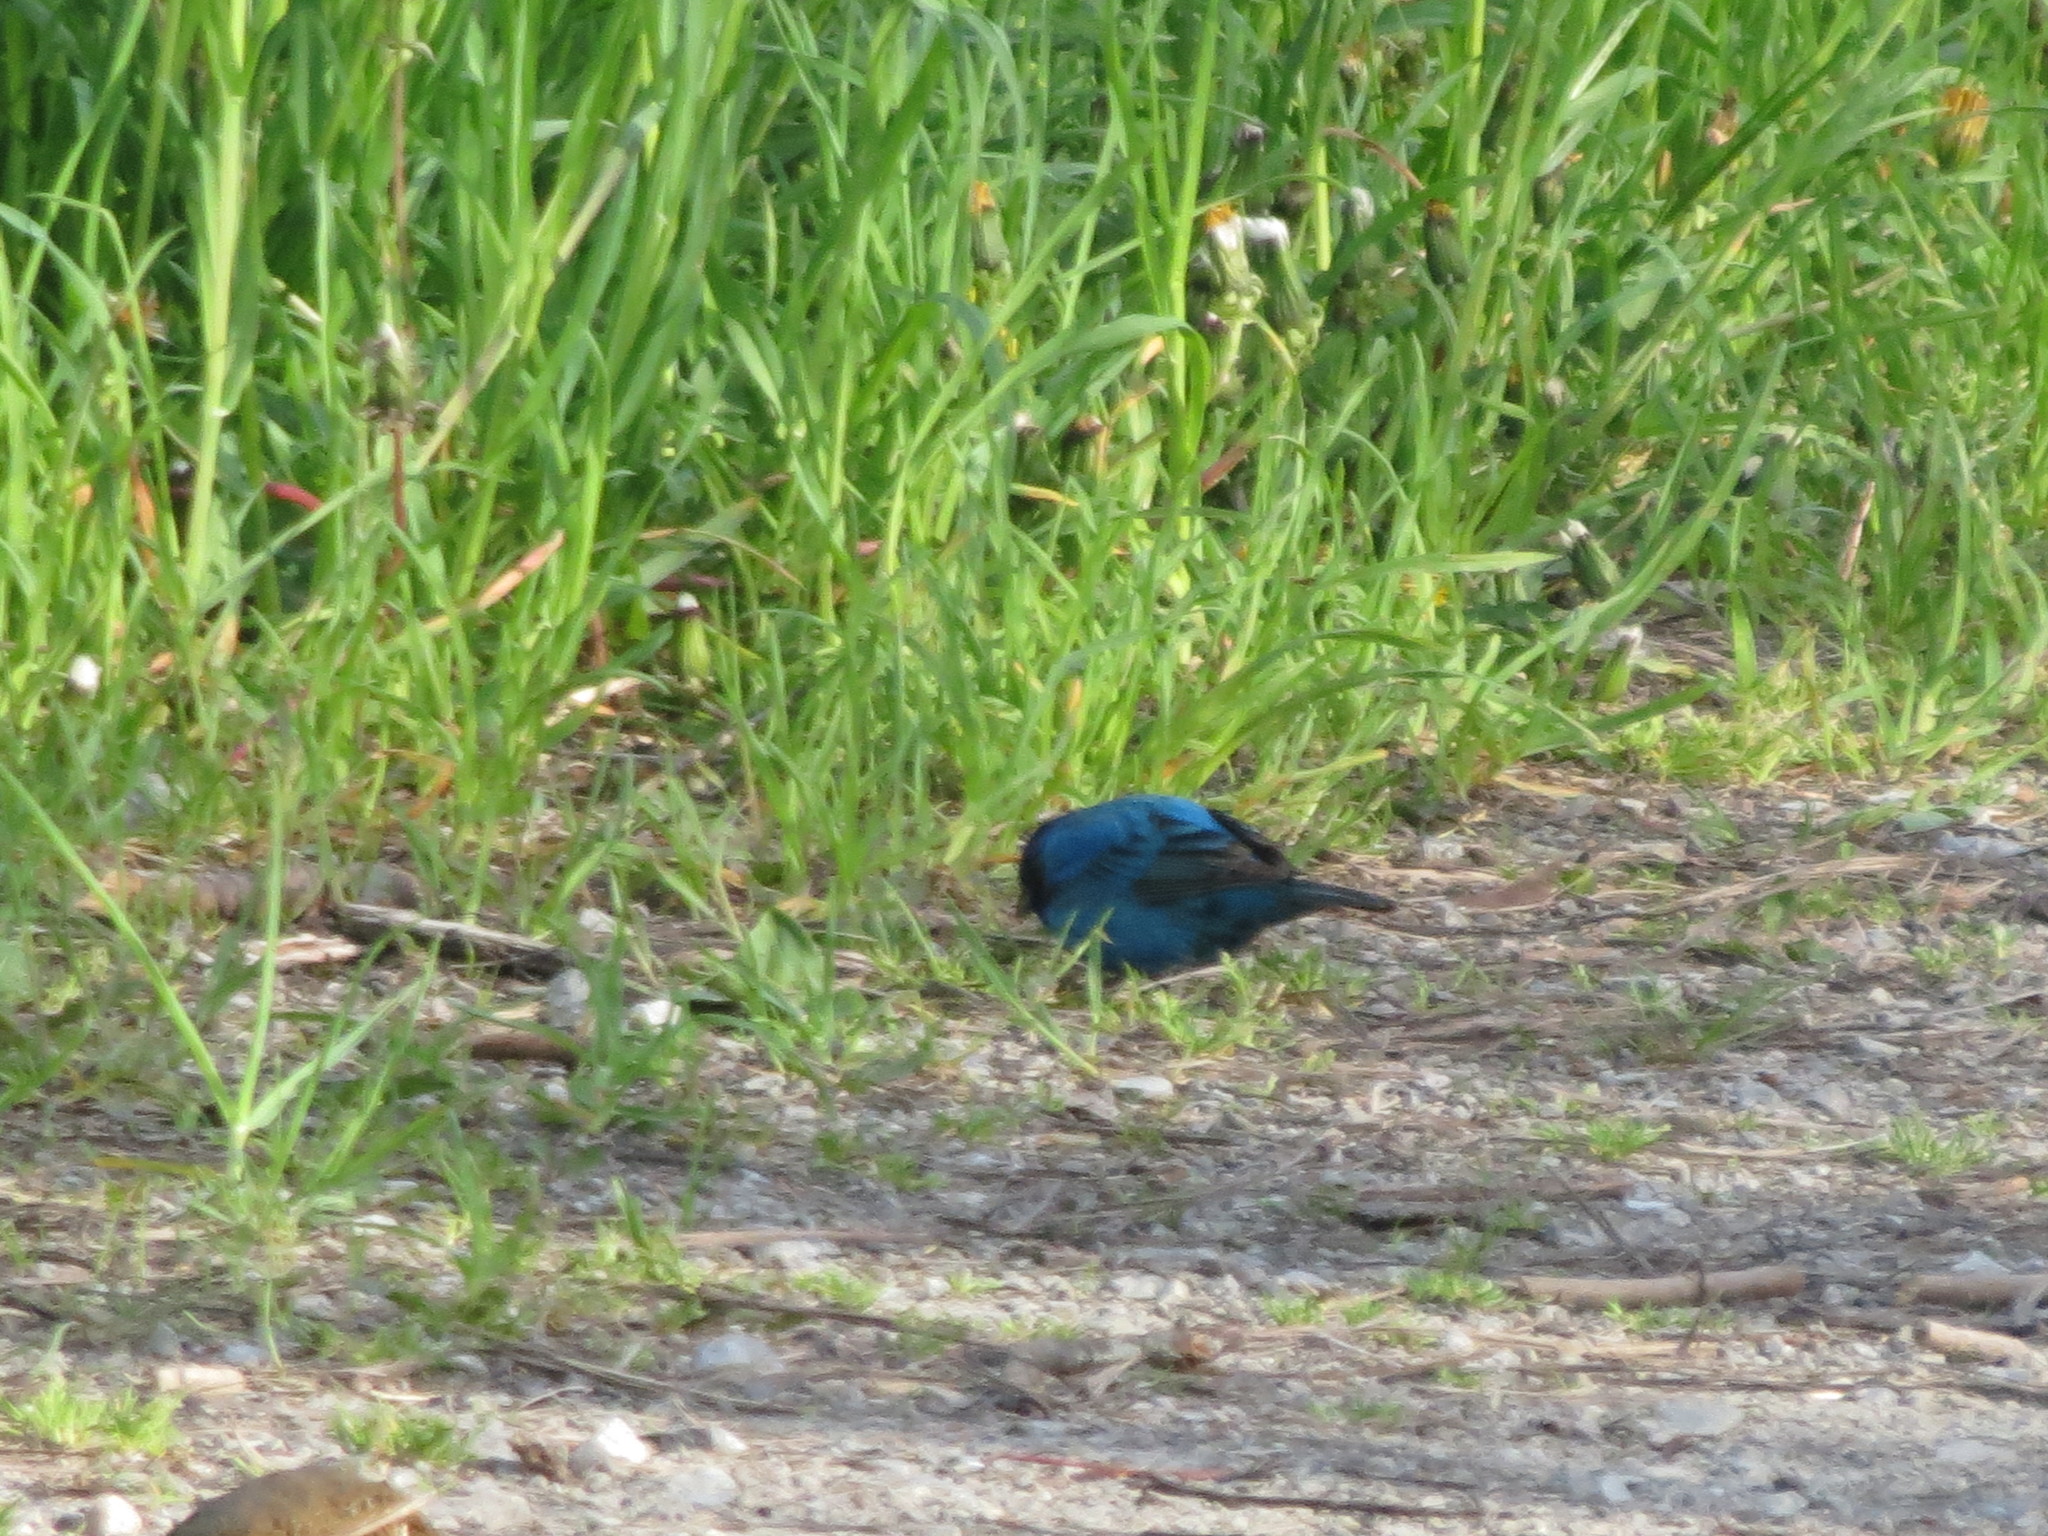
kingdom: Animalia
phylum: Chordata
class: Aves
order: Passeriformes
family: Cardinalidae
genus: Passerina
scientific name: Passerina cyanea
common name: Indigo bunting
